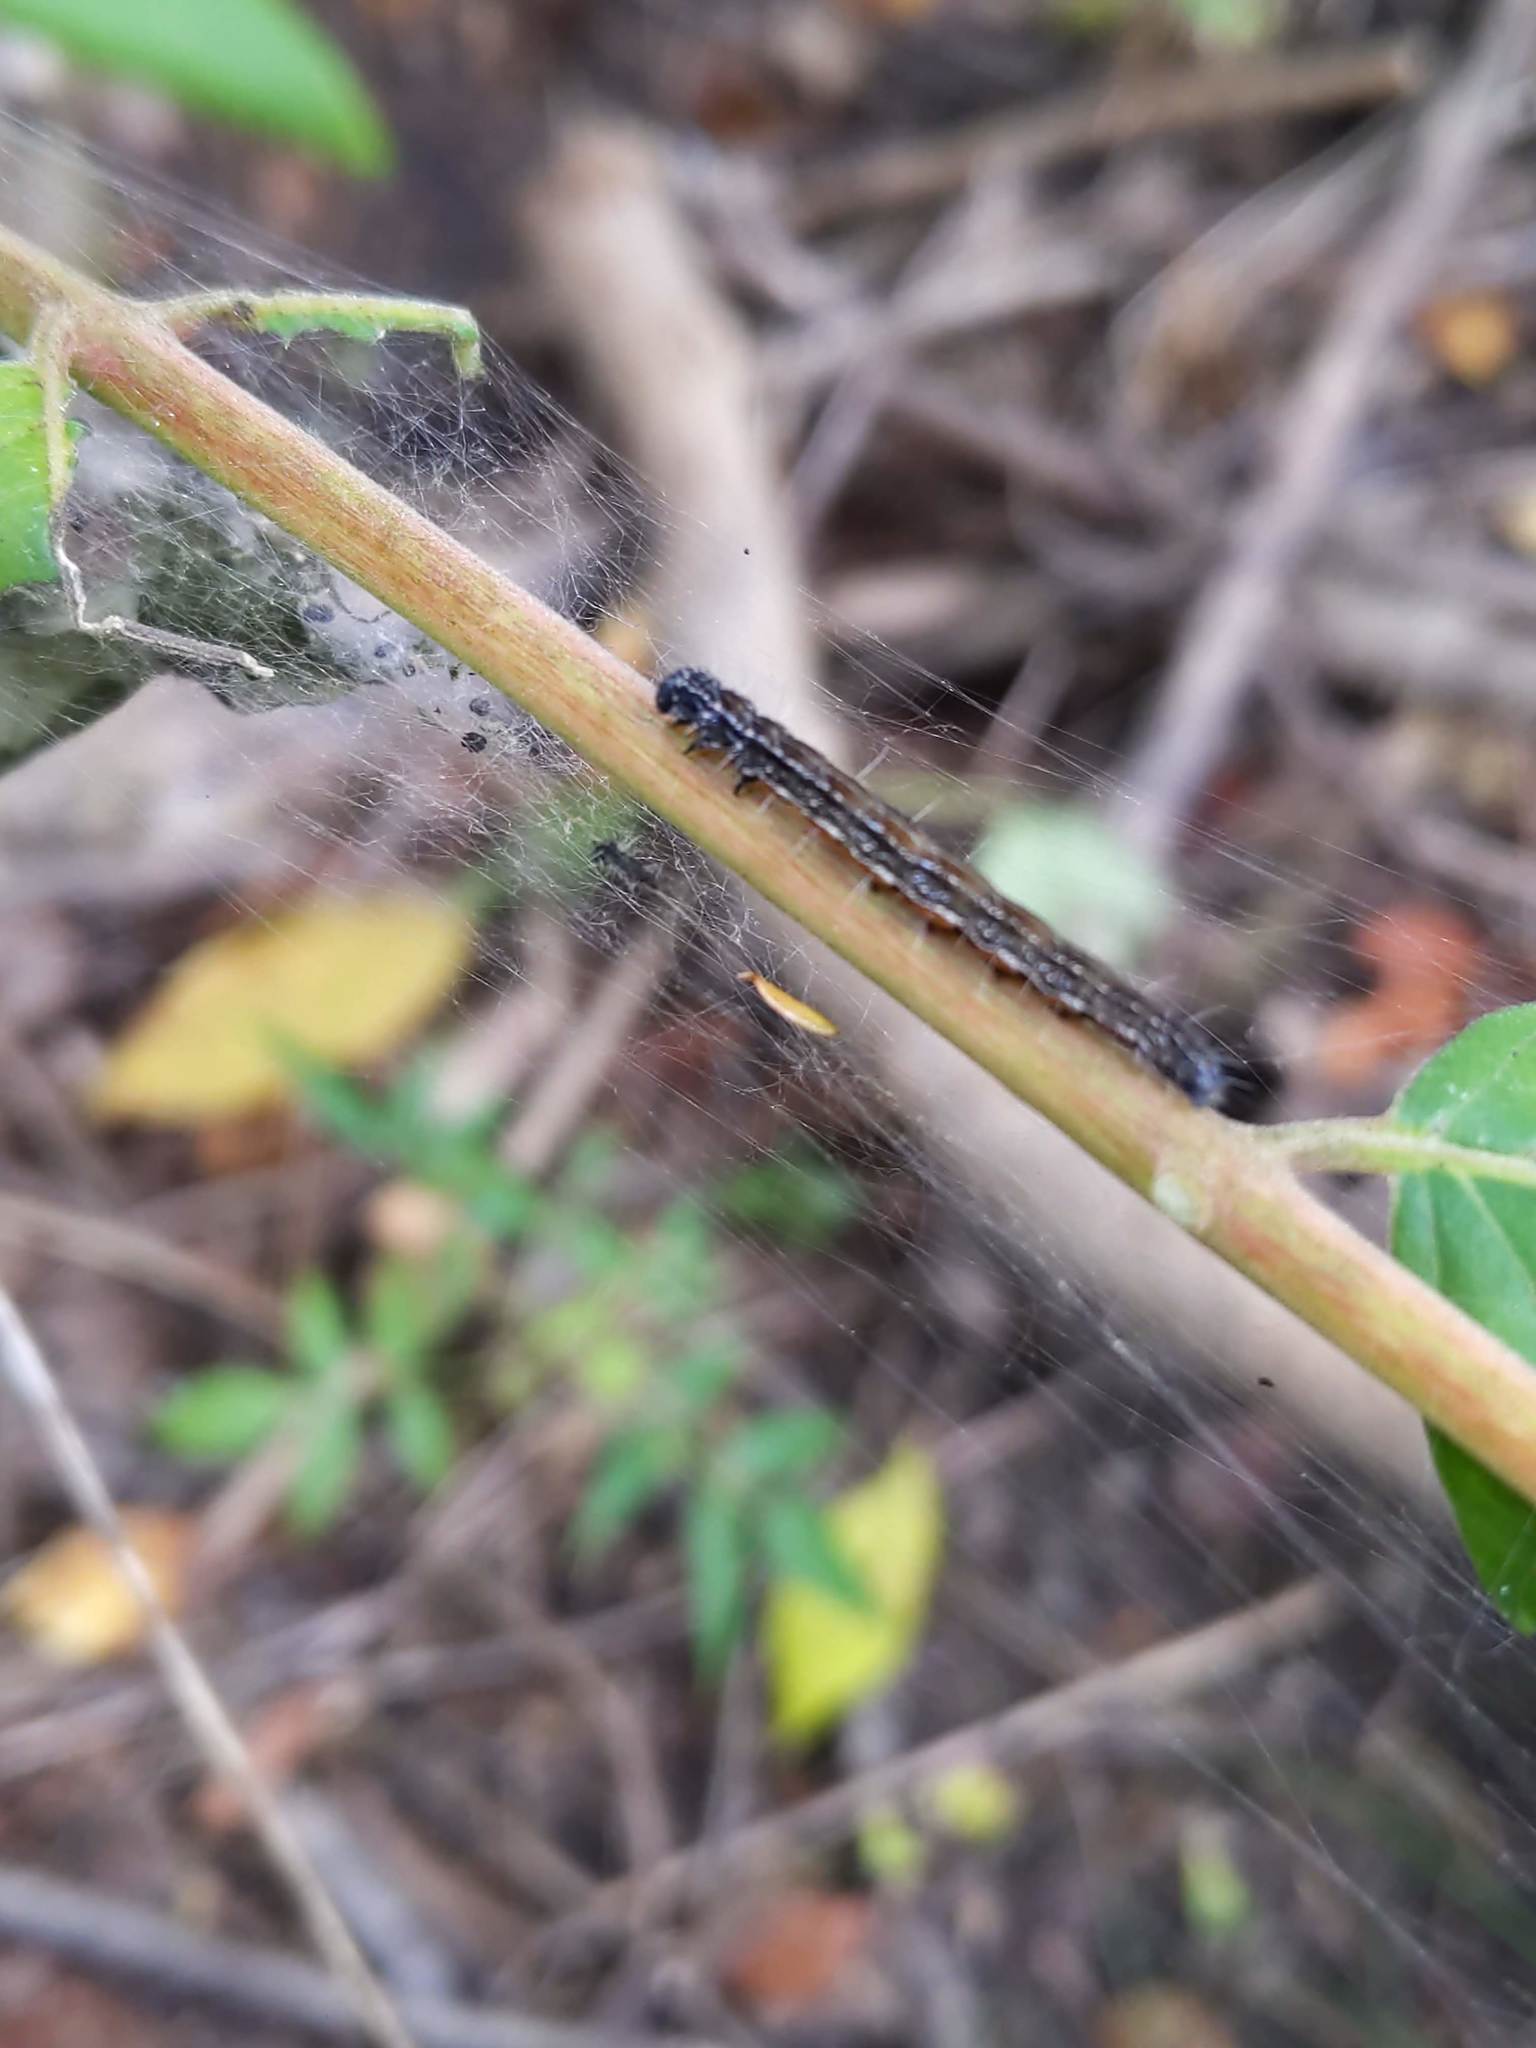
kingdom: Animalia
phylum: Arthropoda
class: Insecta
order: Lepidoptera
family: Attevidae
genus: Atteva
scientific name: Atteva punctella
